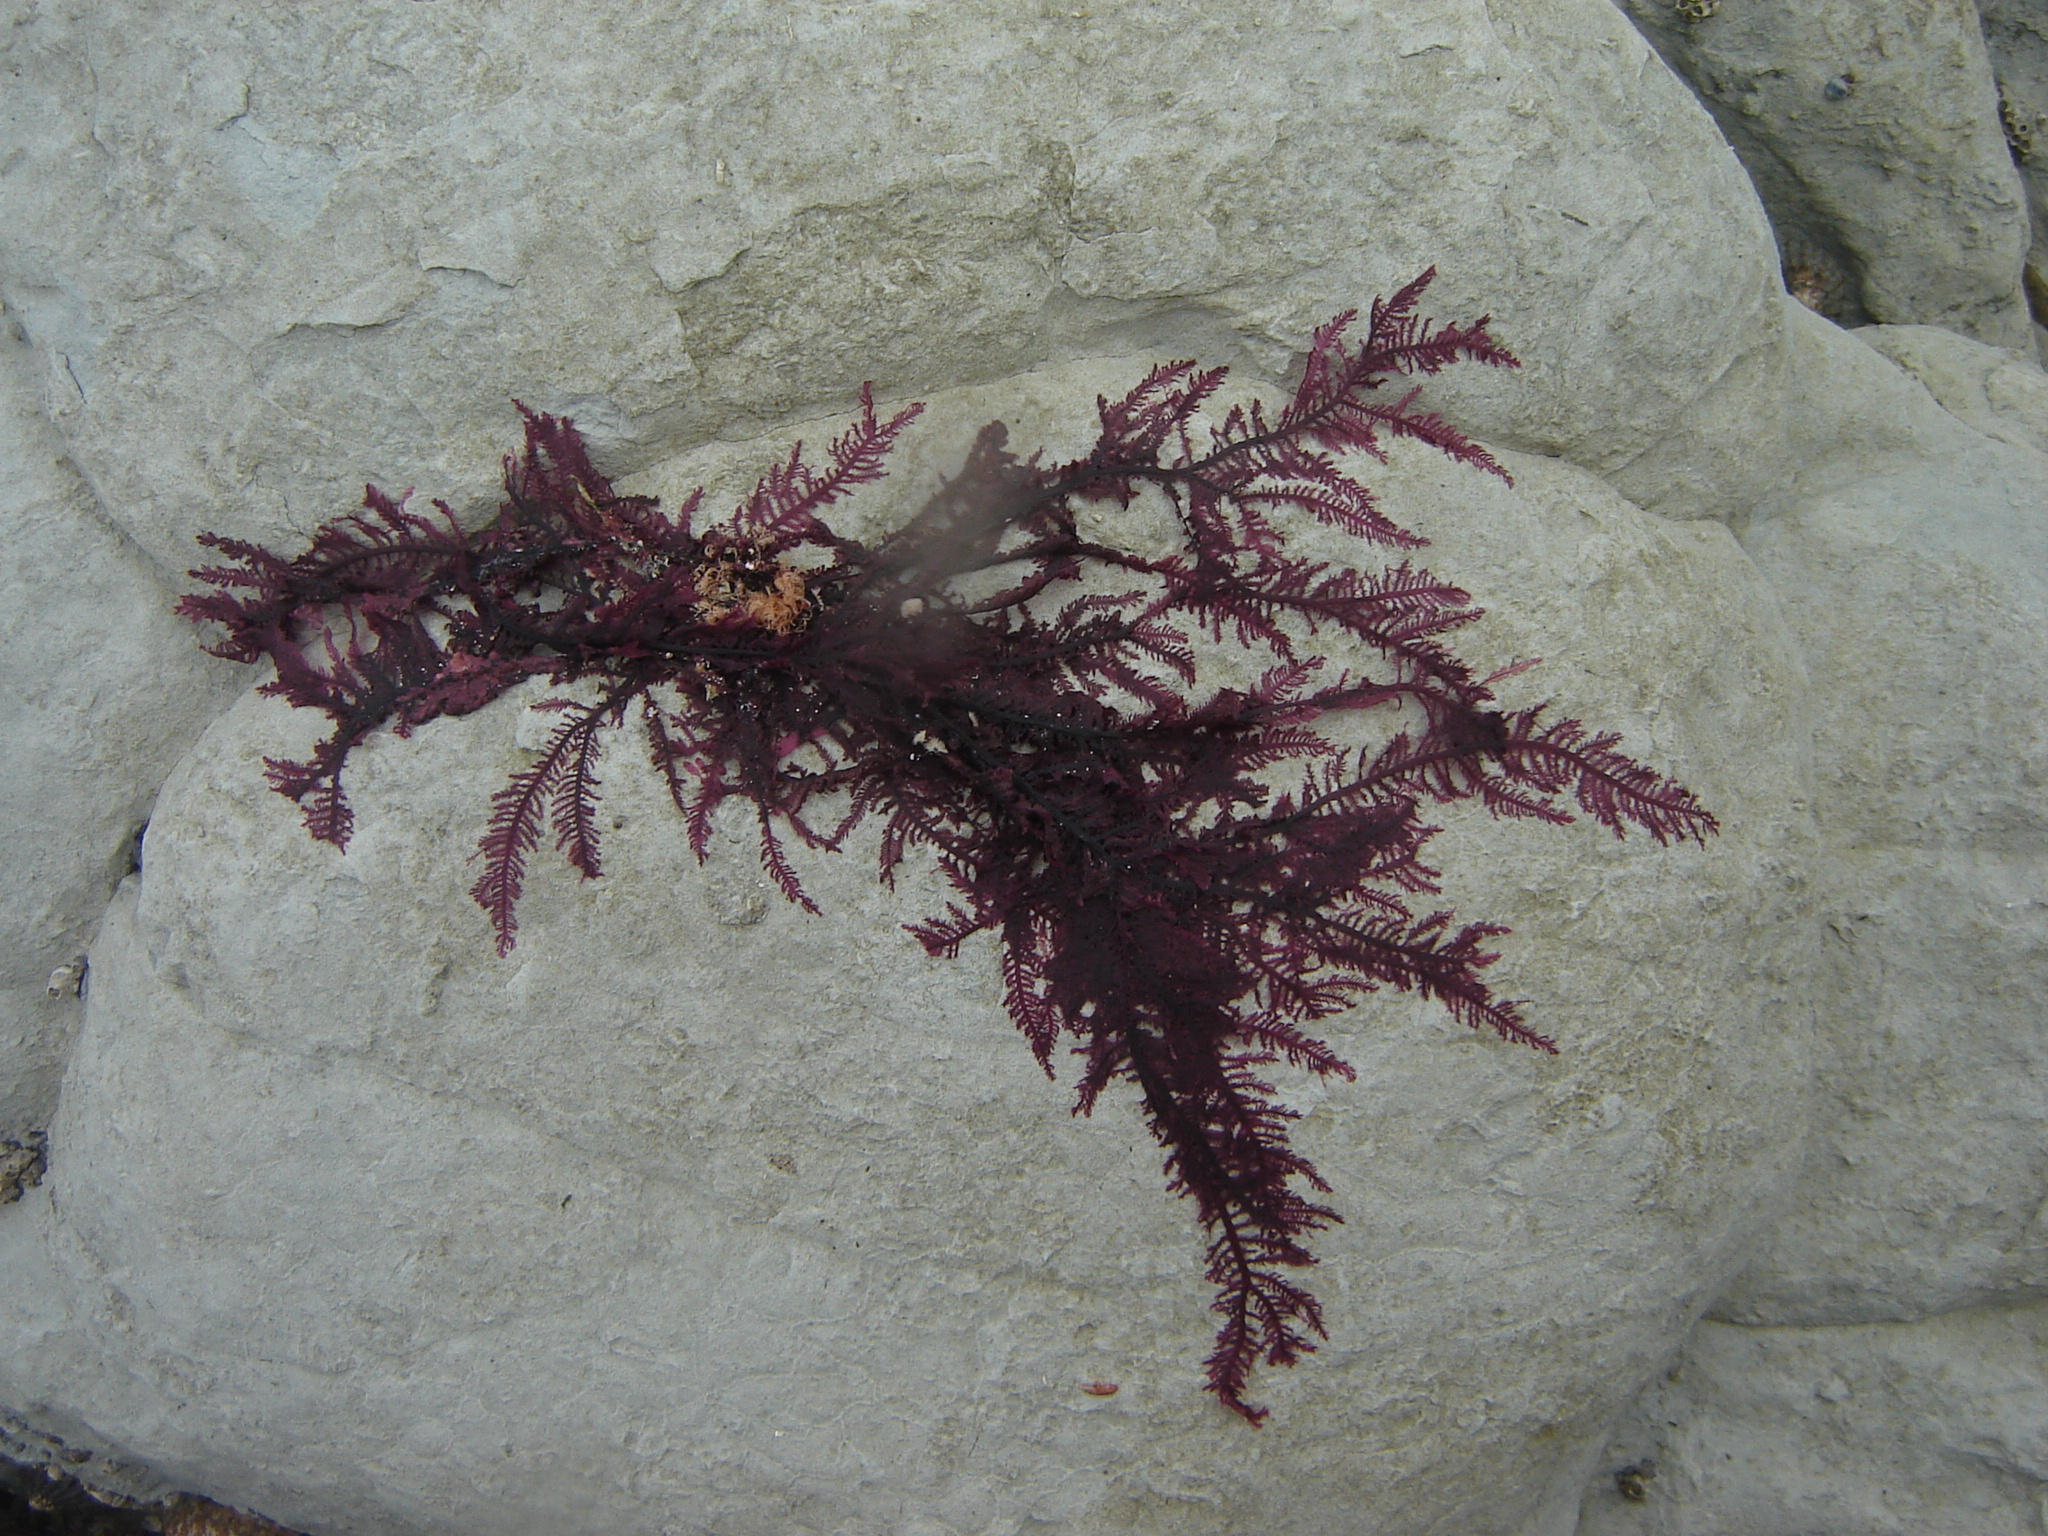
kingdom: Plantae
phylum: Rhodophyta
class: Florideophyceae
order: Ceramiales
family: Callithamniaceae
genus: Euptilota
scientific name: Euptilota formosissima
